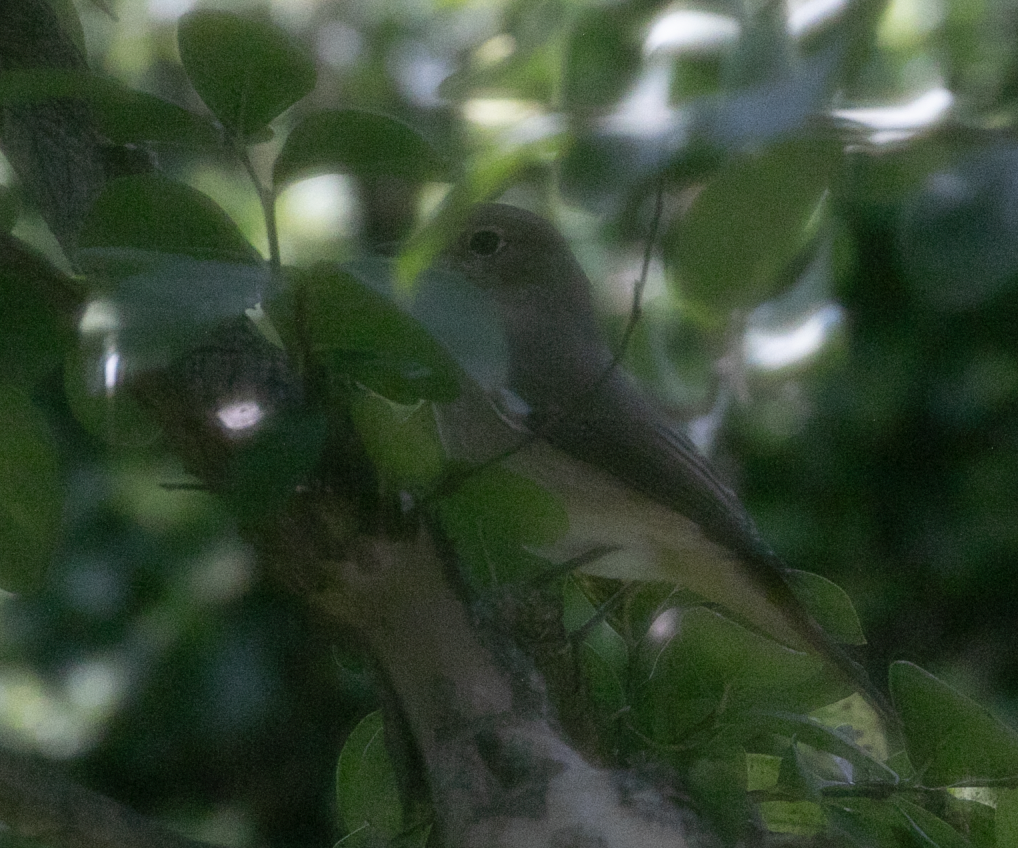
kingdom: Animalia
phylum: Chordata
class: Aves
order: Passeriformes
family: Muscicapidae
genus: Phoenicurus
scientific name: Phoenicurus phoenicurus
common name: Common redstart
